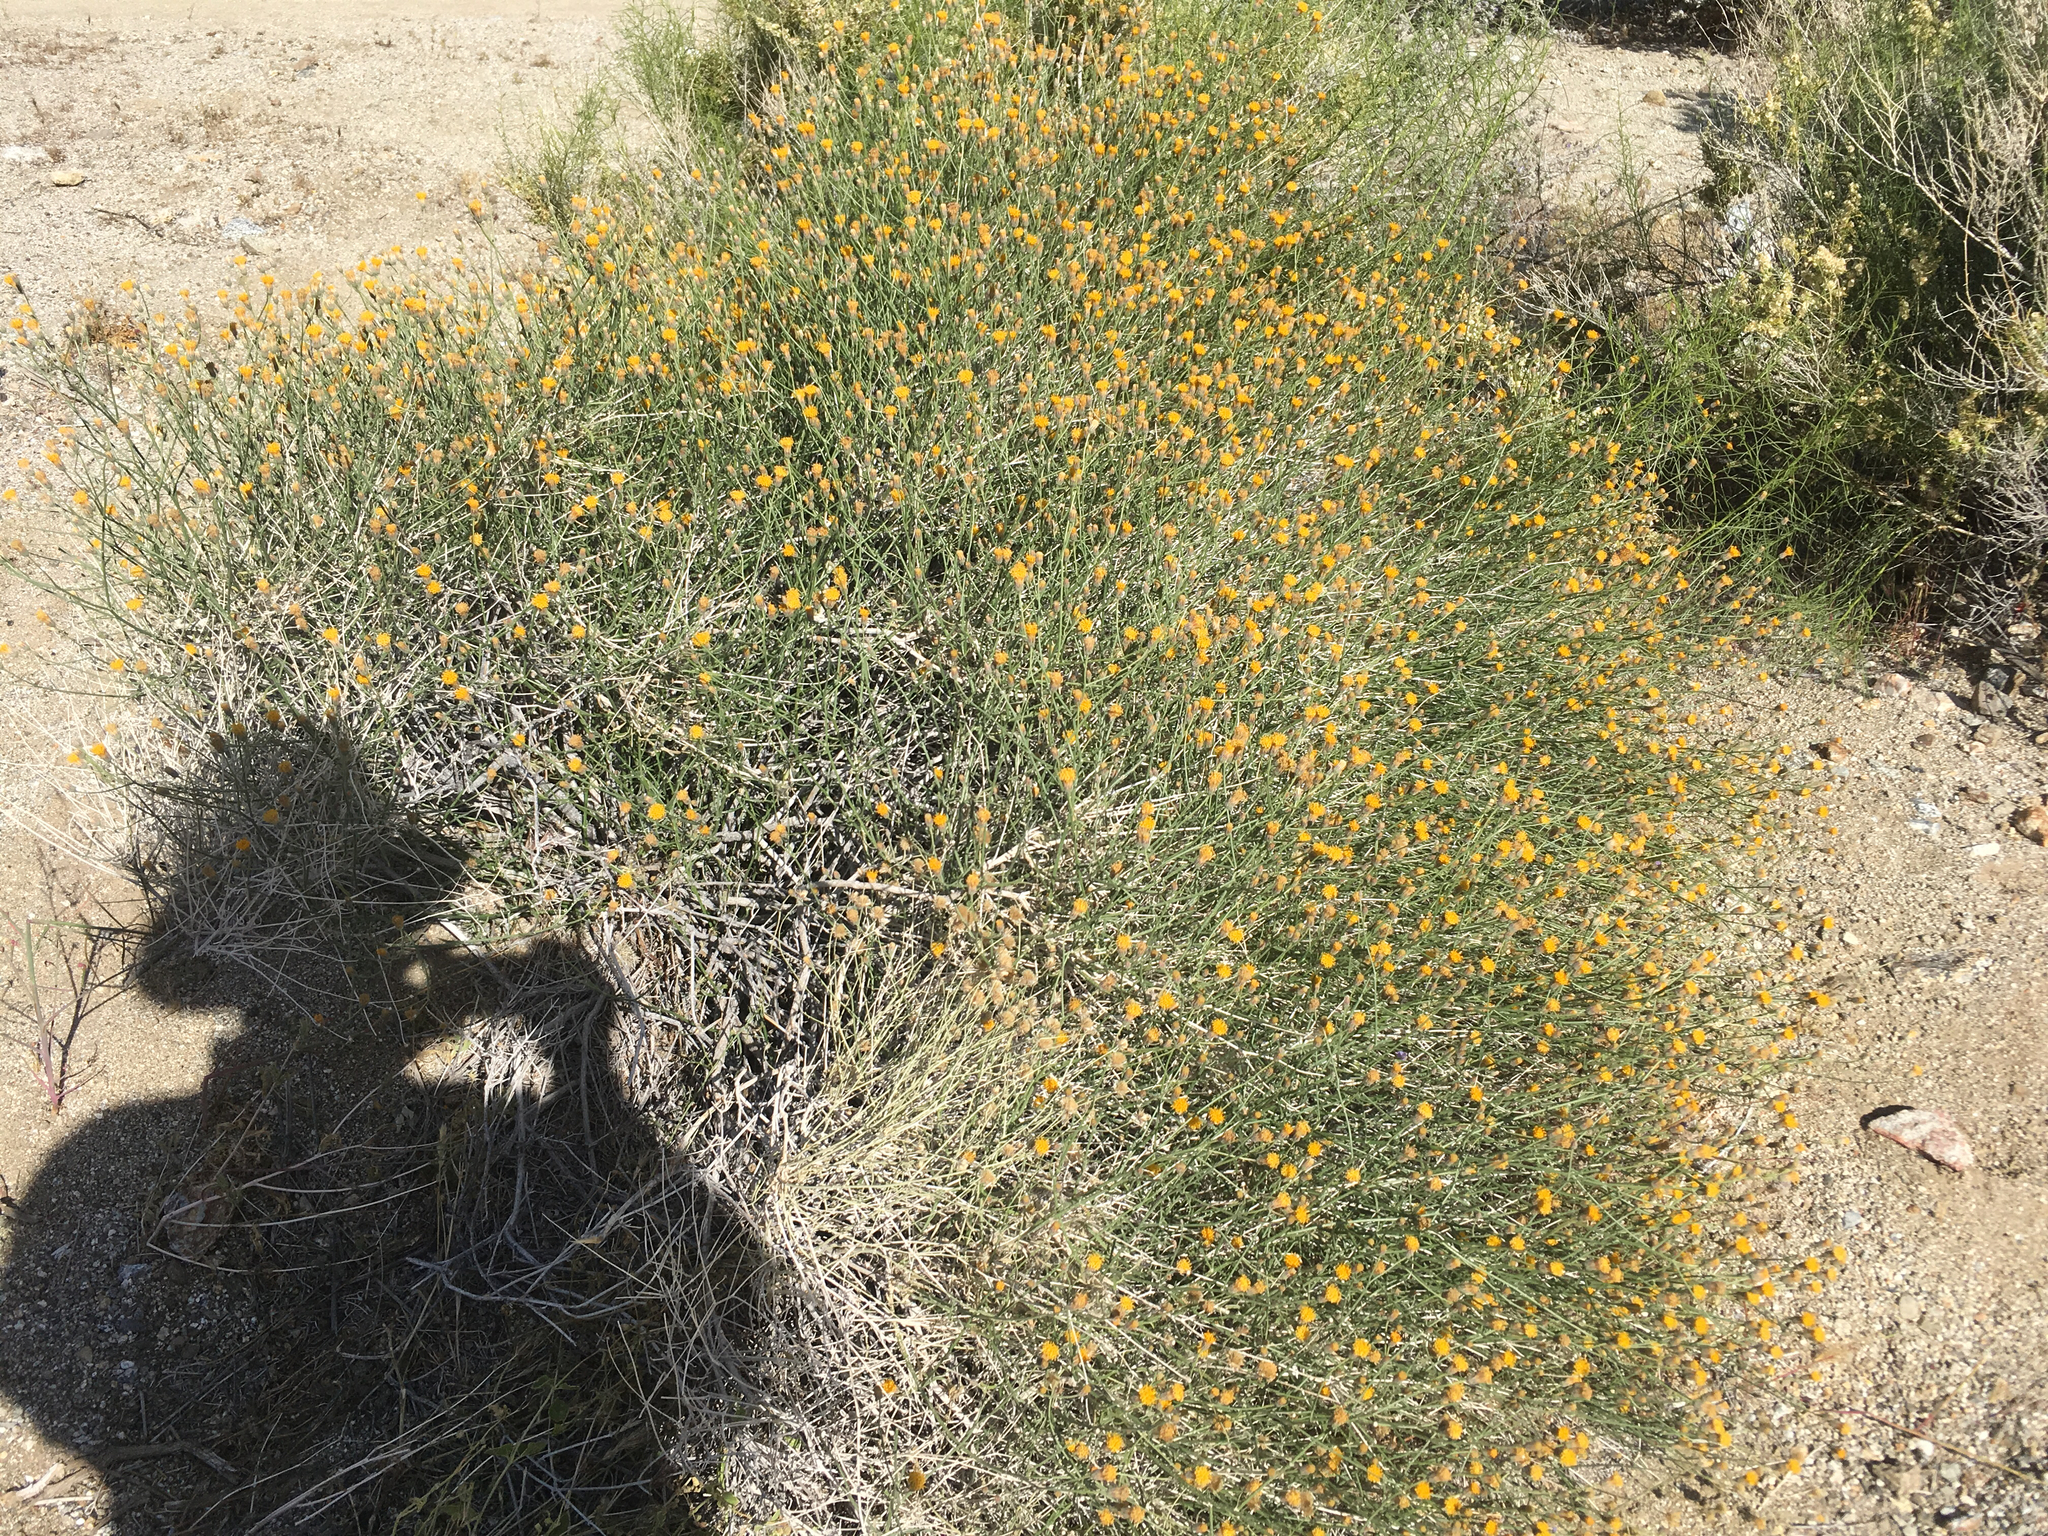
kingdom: Plantae
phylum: Tracheophyta
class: Magnoliopsida
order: Asterales
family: Asteraceae
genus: Bebbia
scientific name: Bebbia juncea
